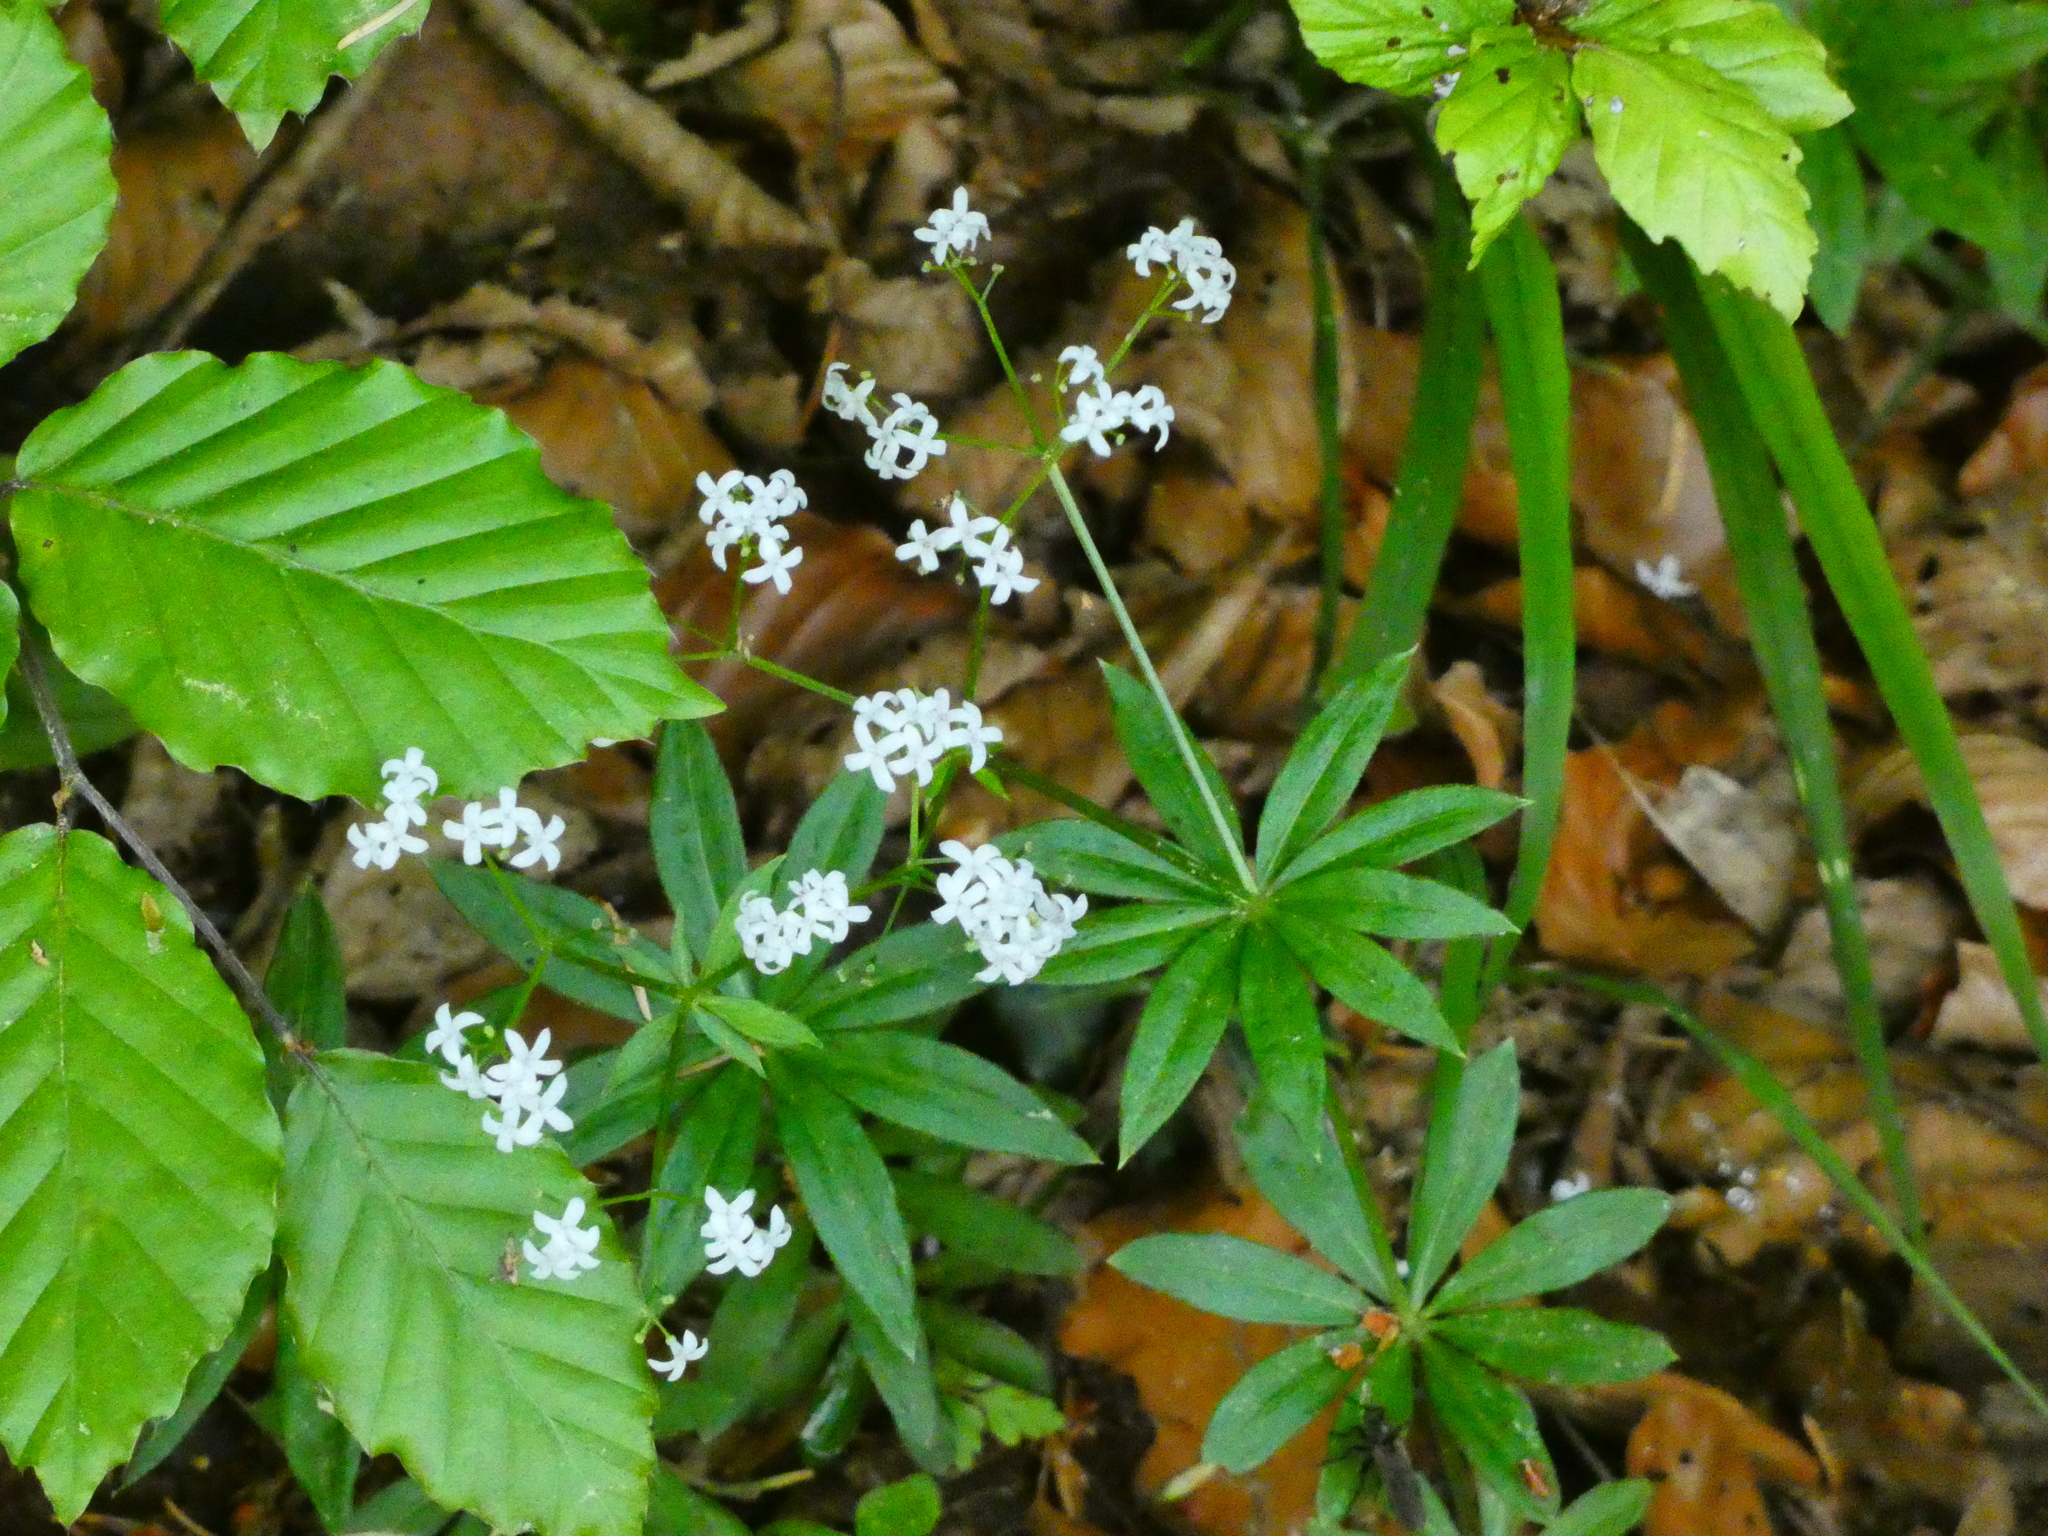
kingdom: Plantae
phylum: Tracheophyta
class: Magnoliopsida
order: Gentianales
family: Rubiaceae
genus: Galium
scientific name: Galium odoratum
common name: Sweet woodruff
